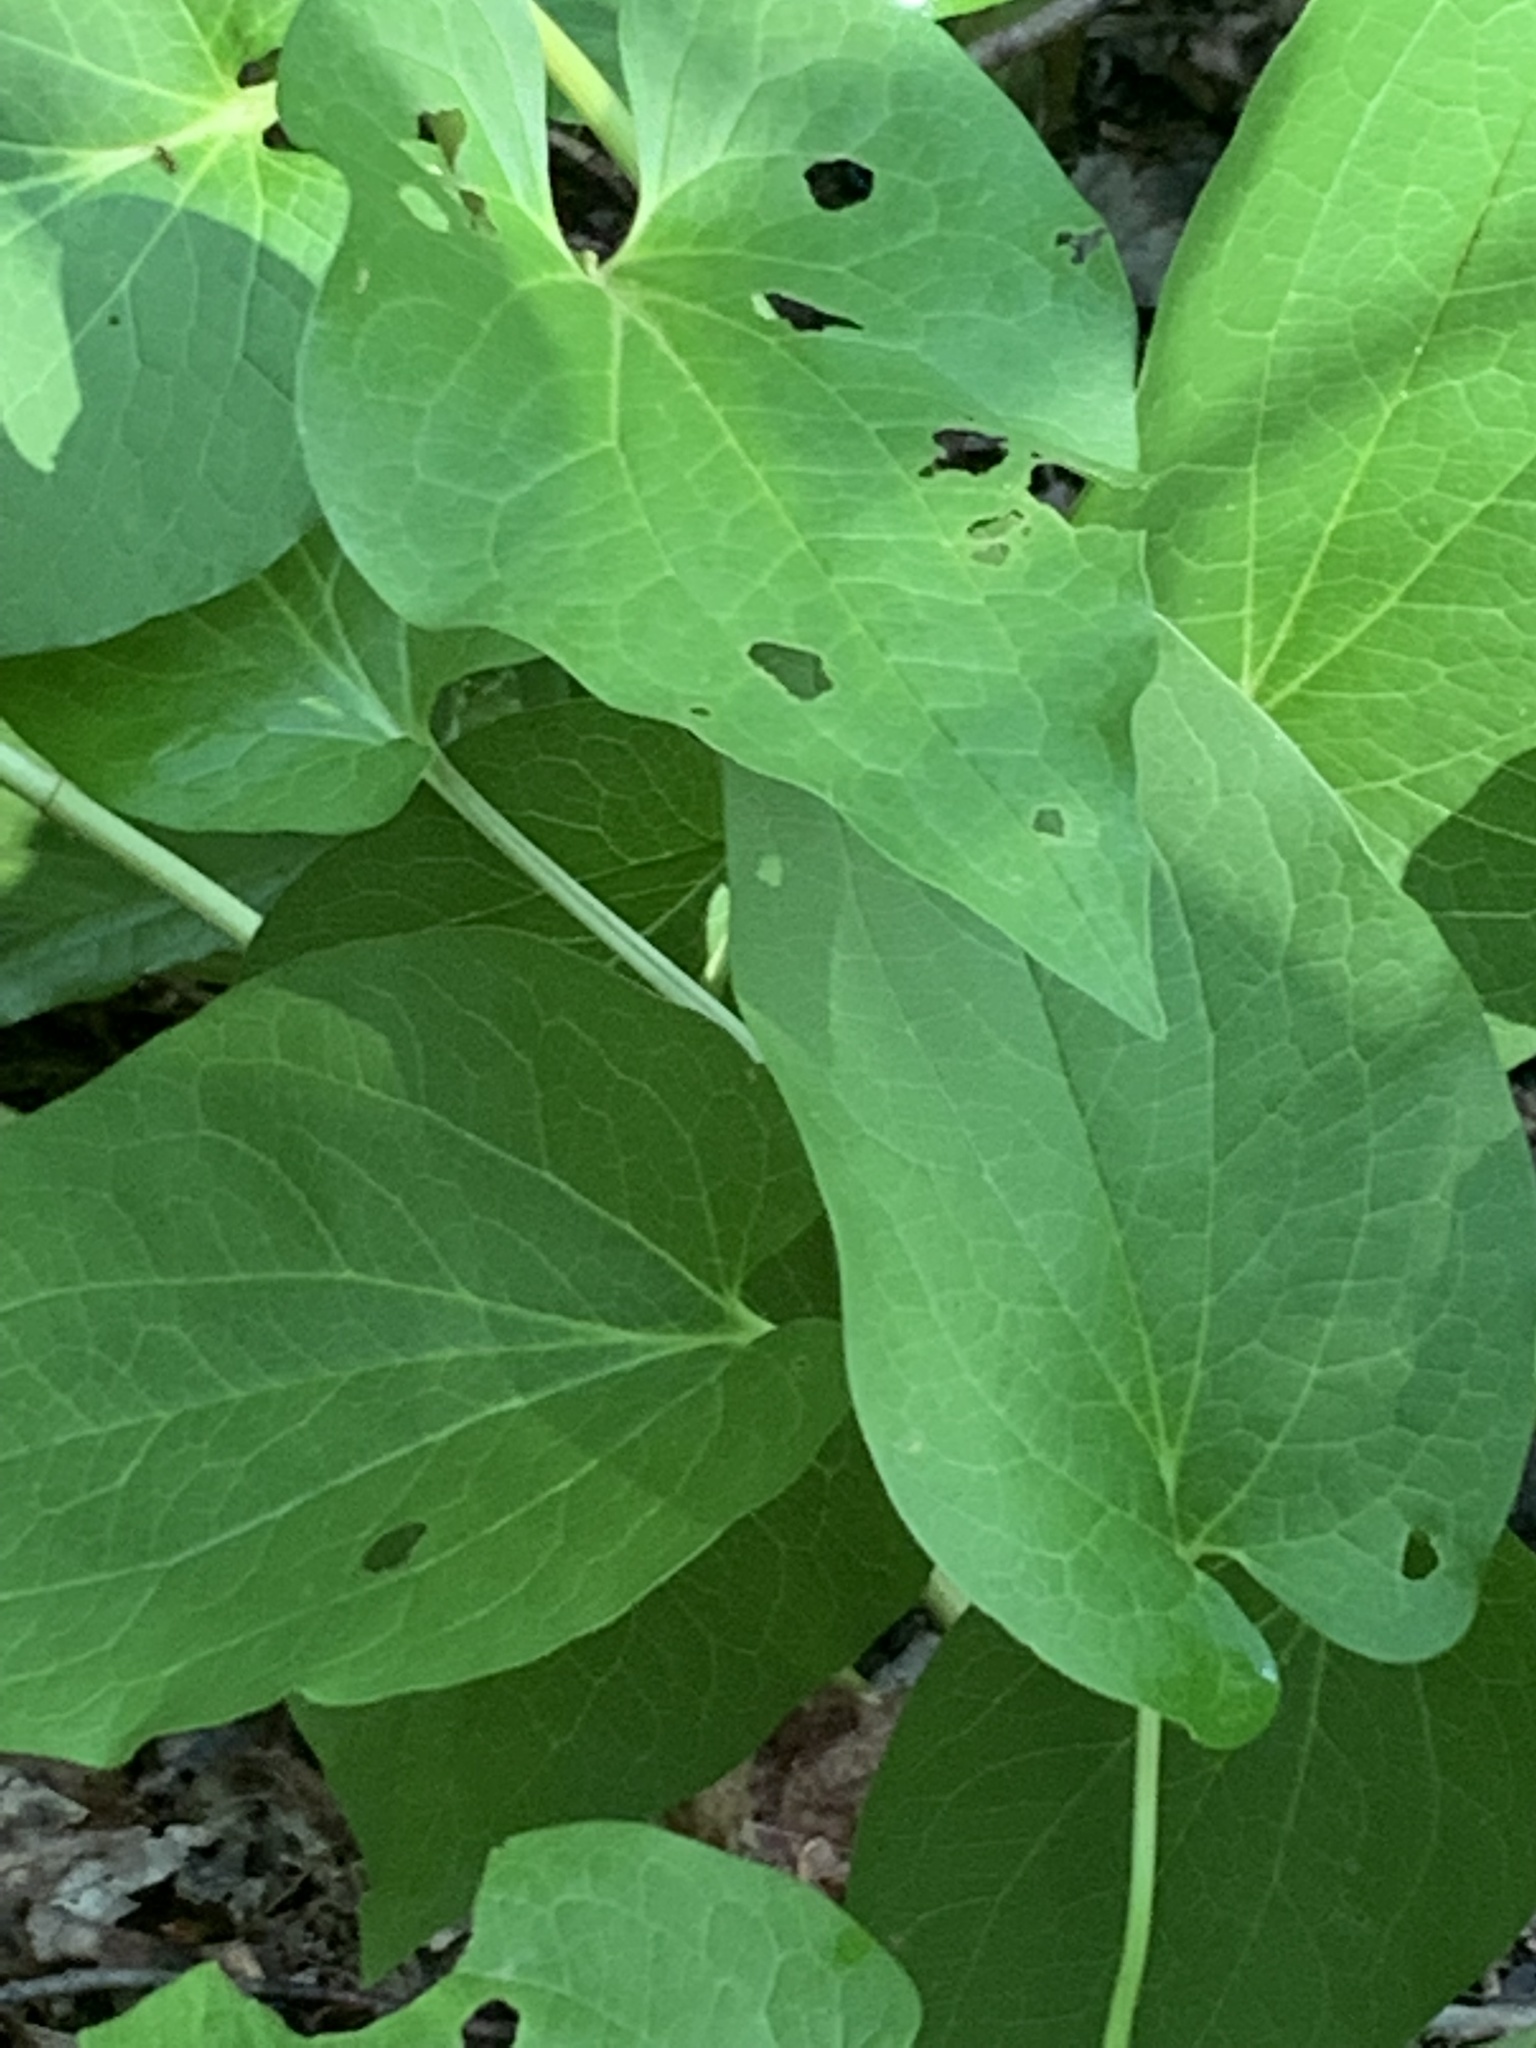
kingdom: Plantae
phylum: Tracheophyta
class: Magnoliopsida
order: Piperales
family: Saururaceae
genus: Saururus
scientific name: Saururus cernuus
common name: Lizard's-tail
